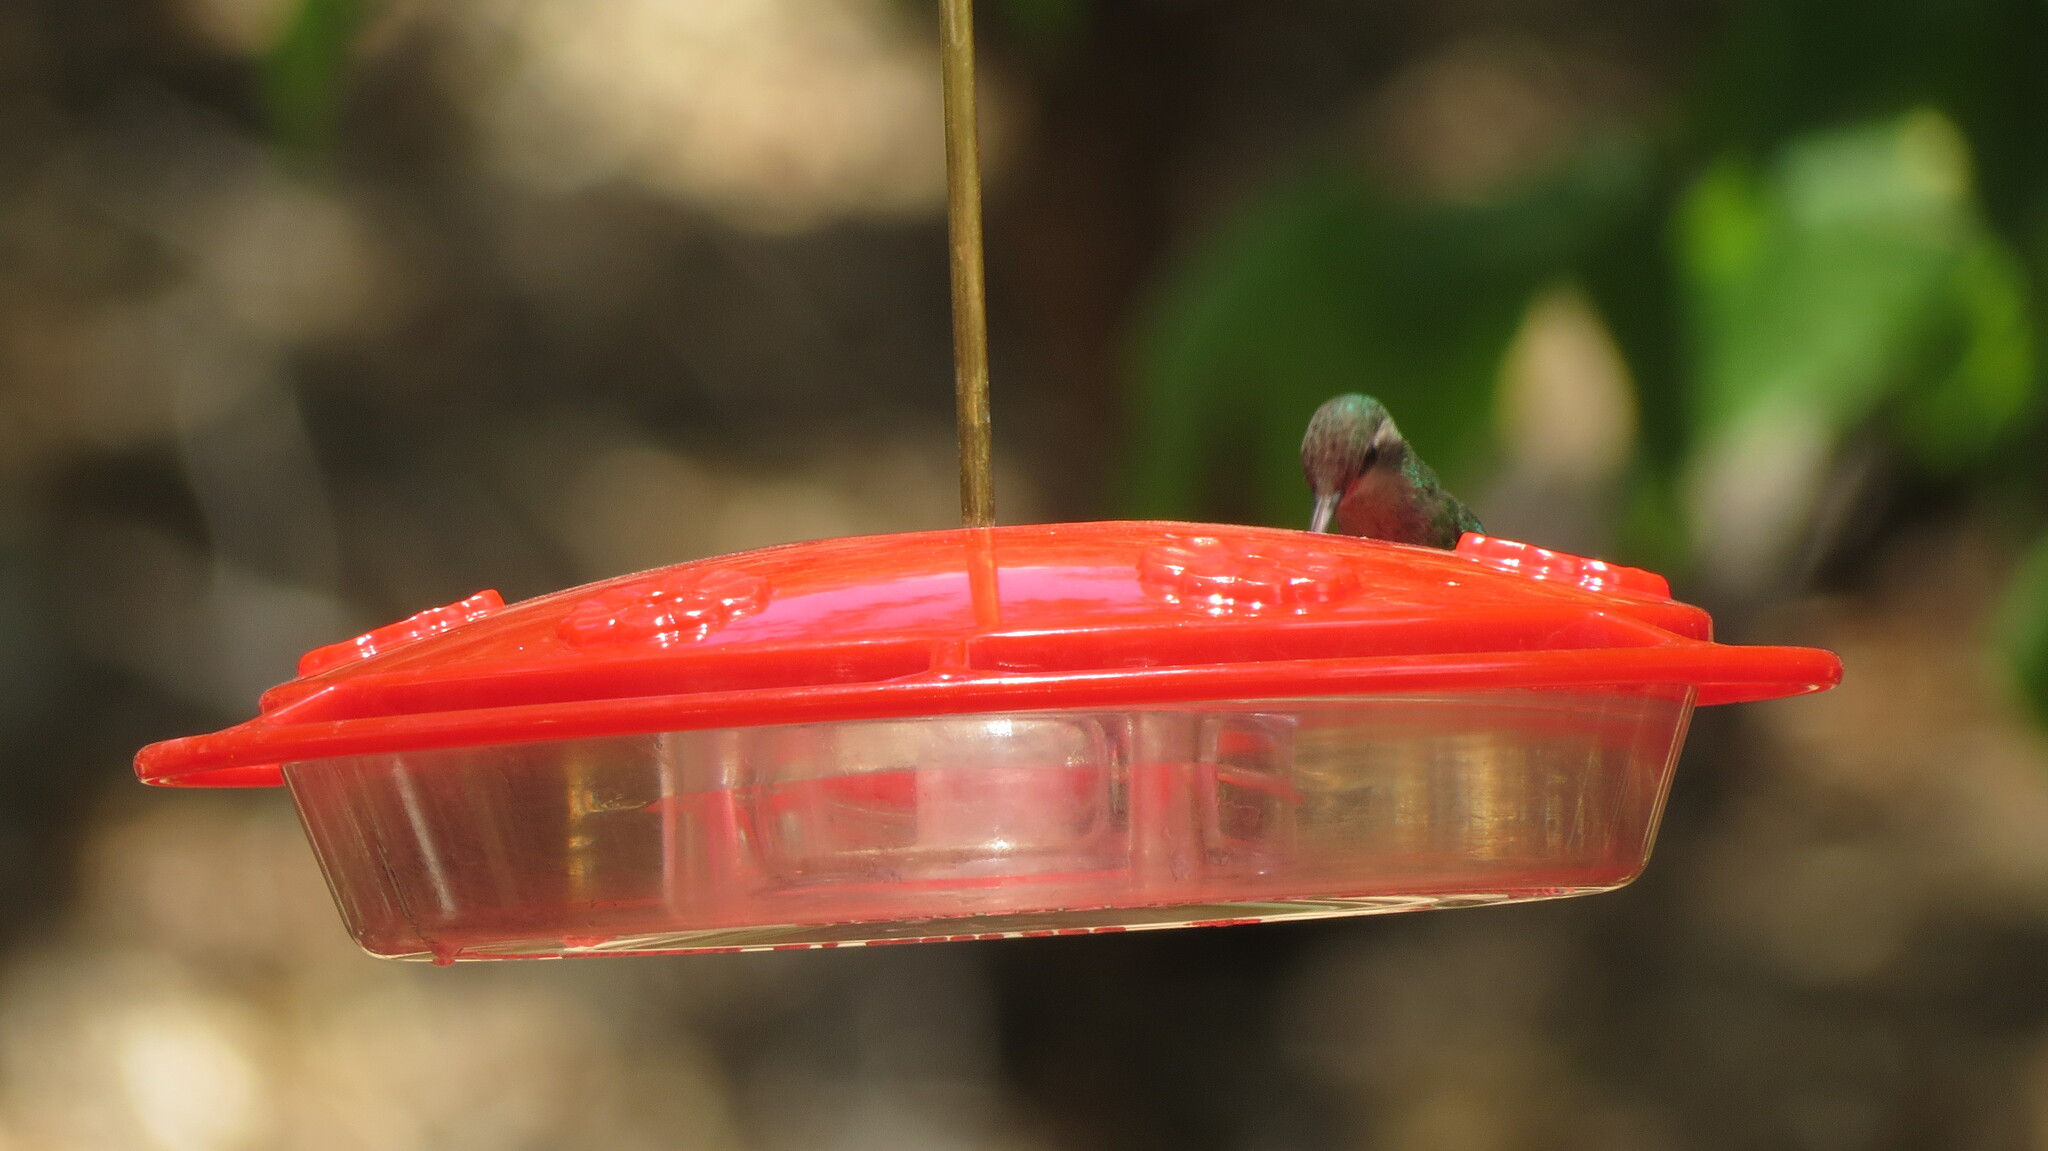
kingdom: Animalia
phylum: Chordata
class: Aves
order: Apodiformes
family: Trochilidae
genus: Cynanthus
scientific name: Cynanthus latirostris
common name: Broad-billed hummingbird
